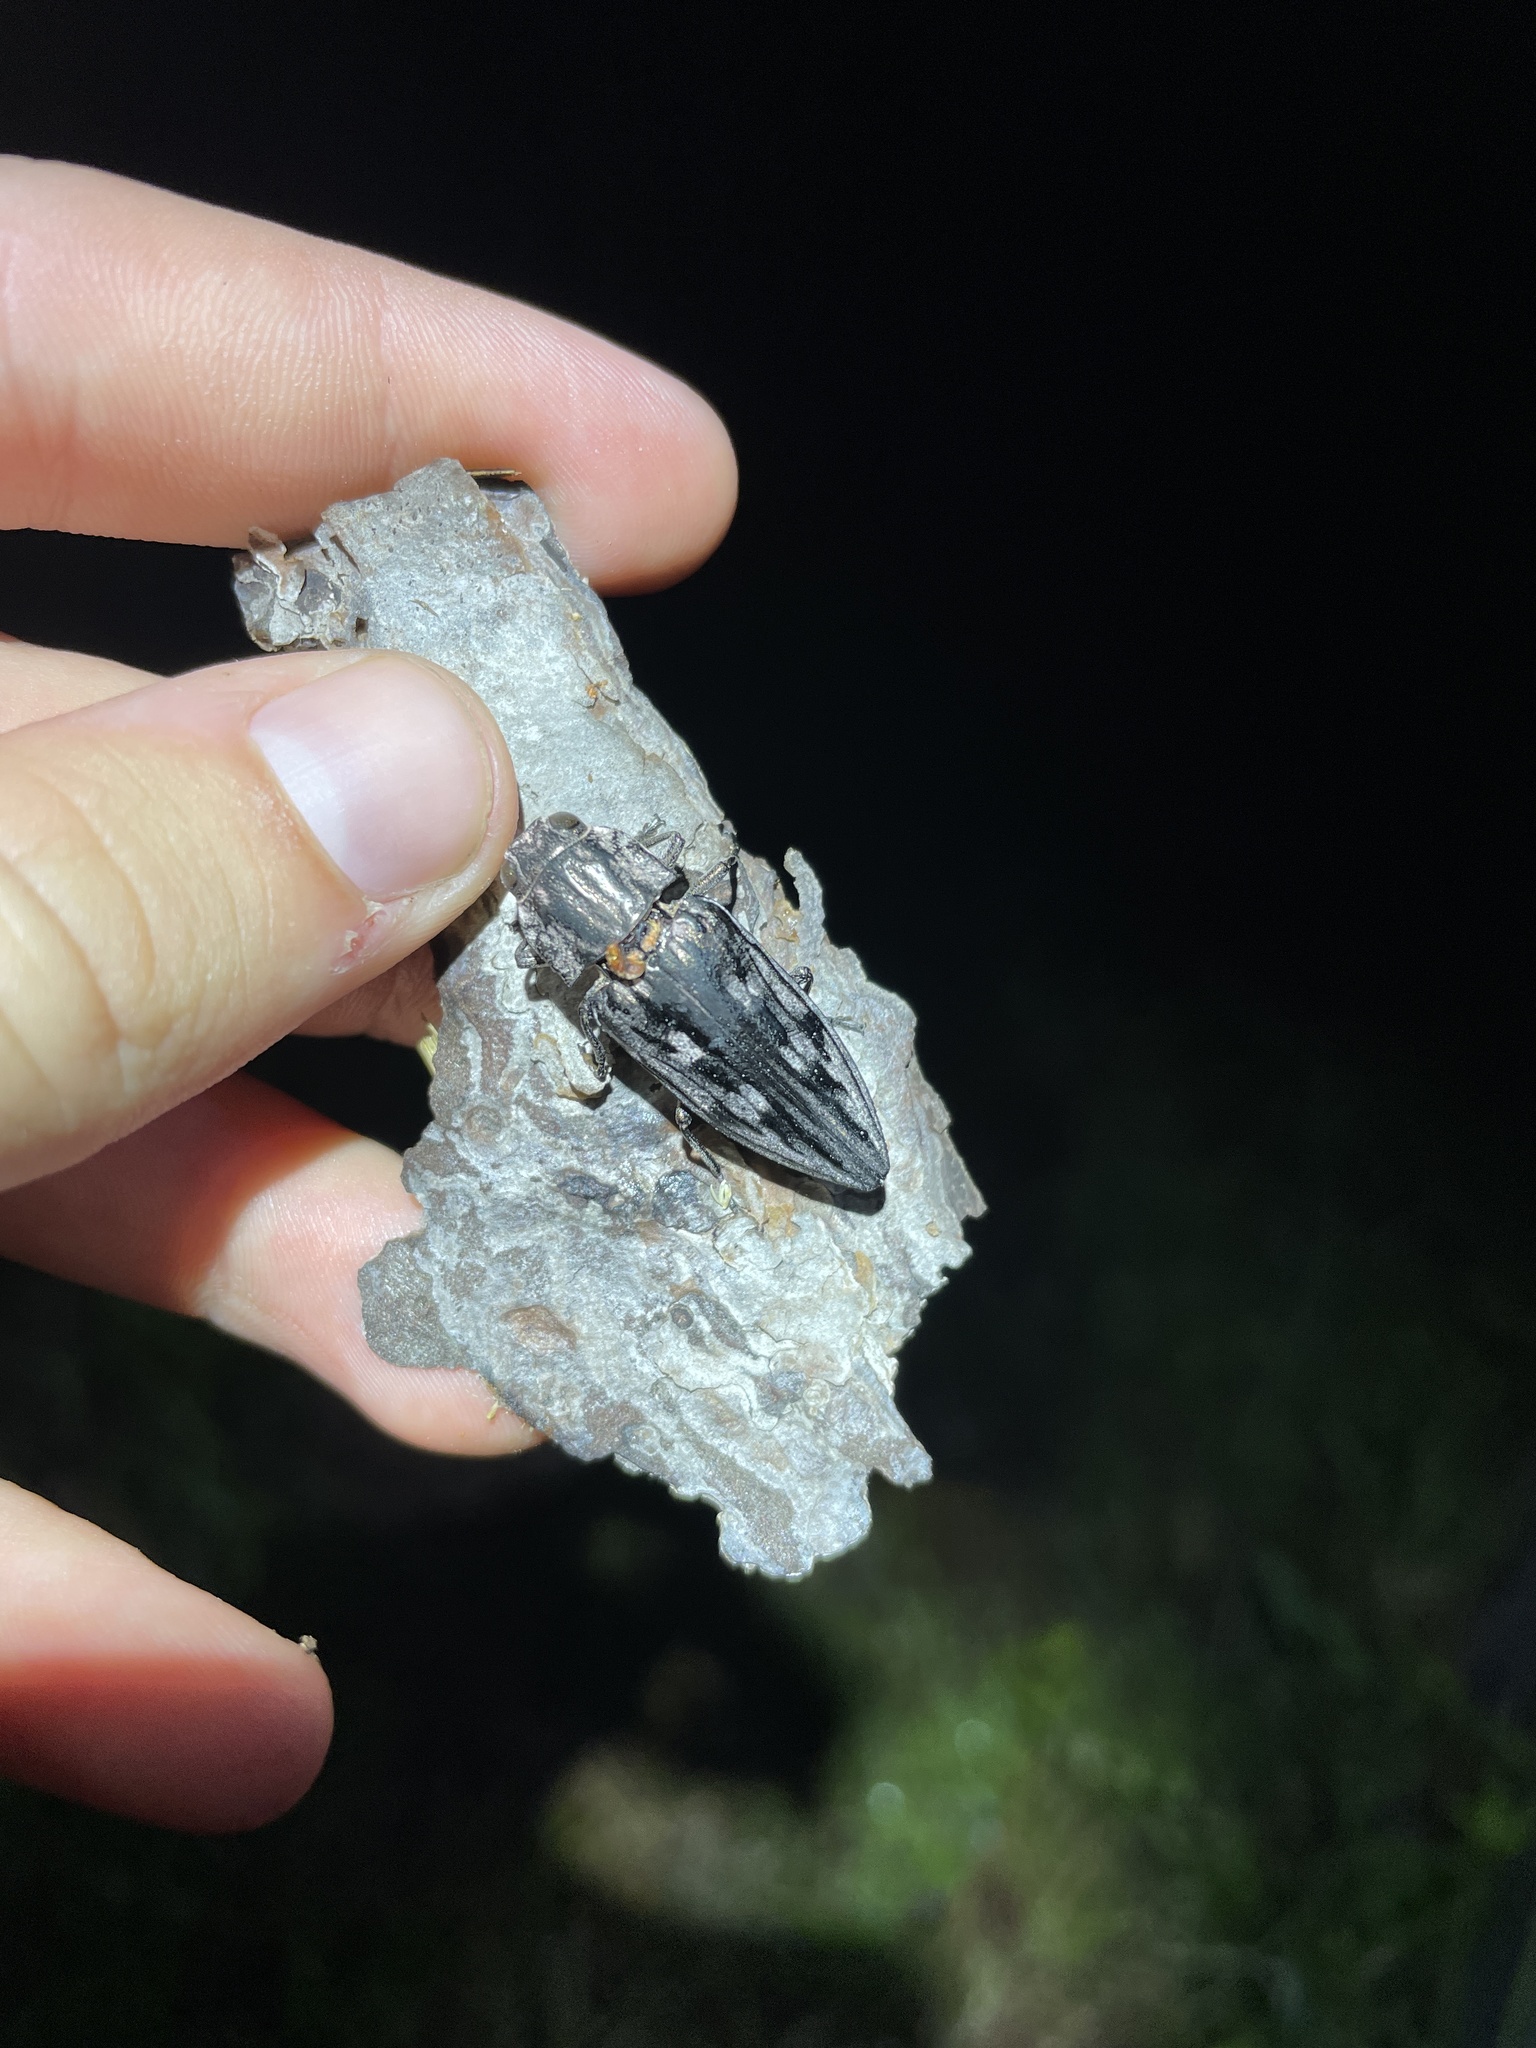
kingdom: Animalia
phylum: Arthropoda
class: Insecta
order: Coleoptera
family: Buprestidae
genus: Chalcophora
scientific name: Chalcophora virginiensis
